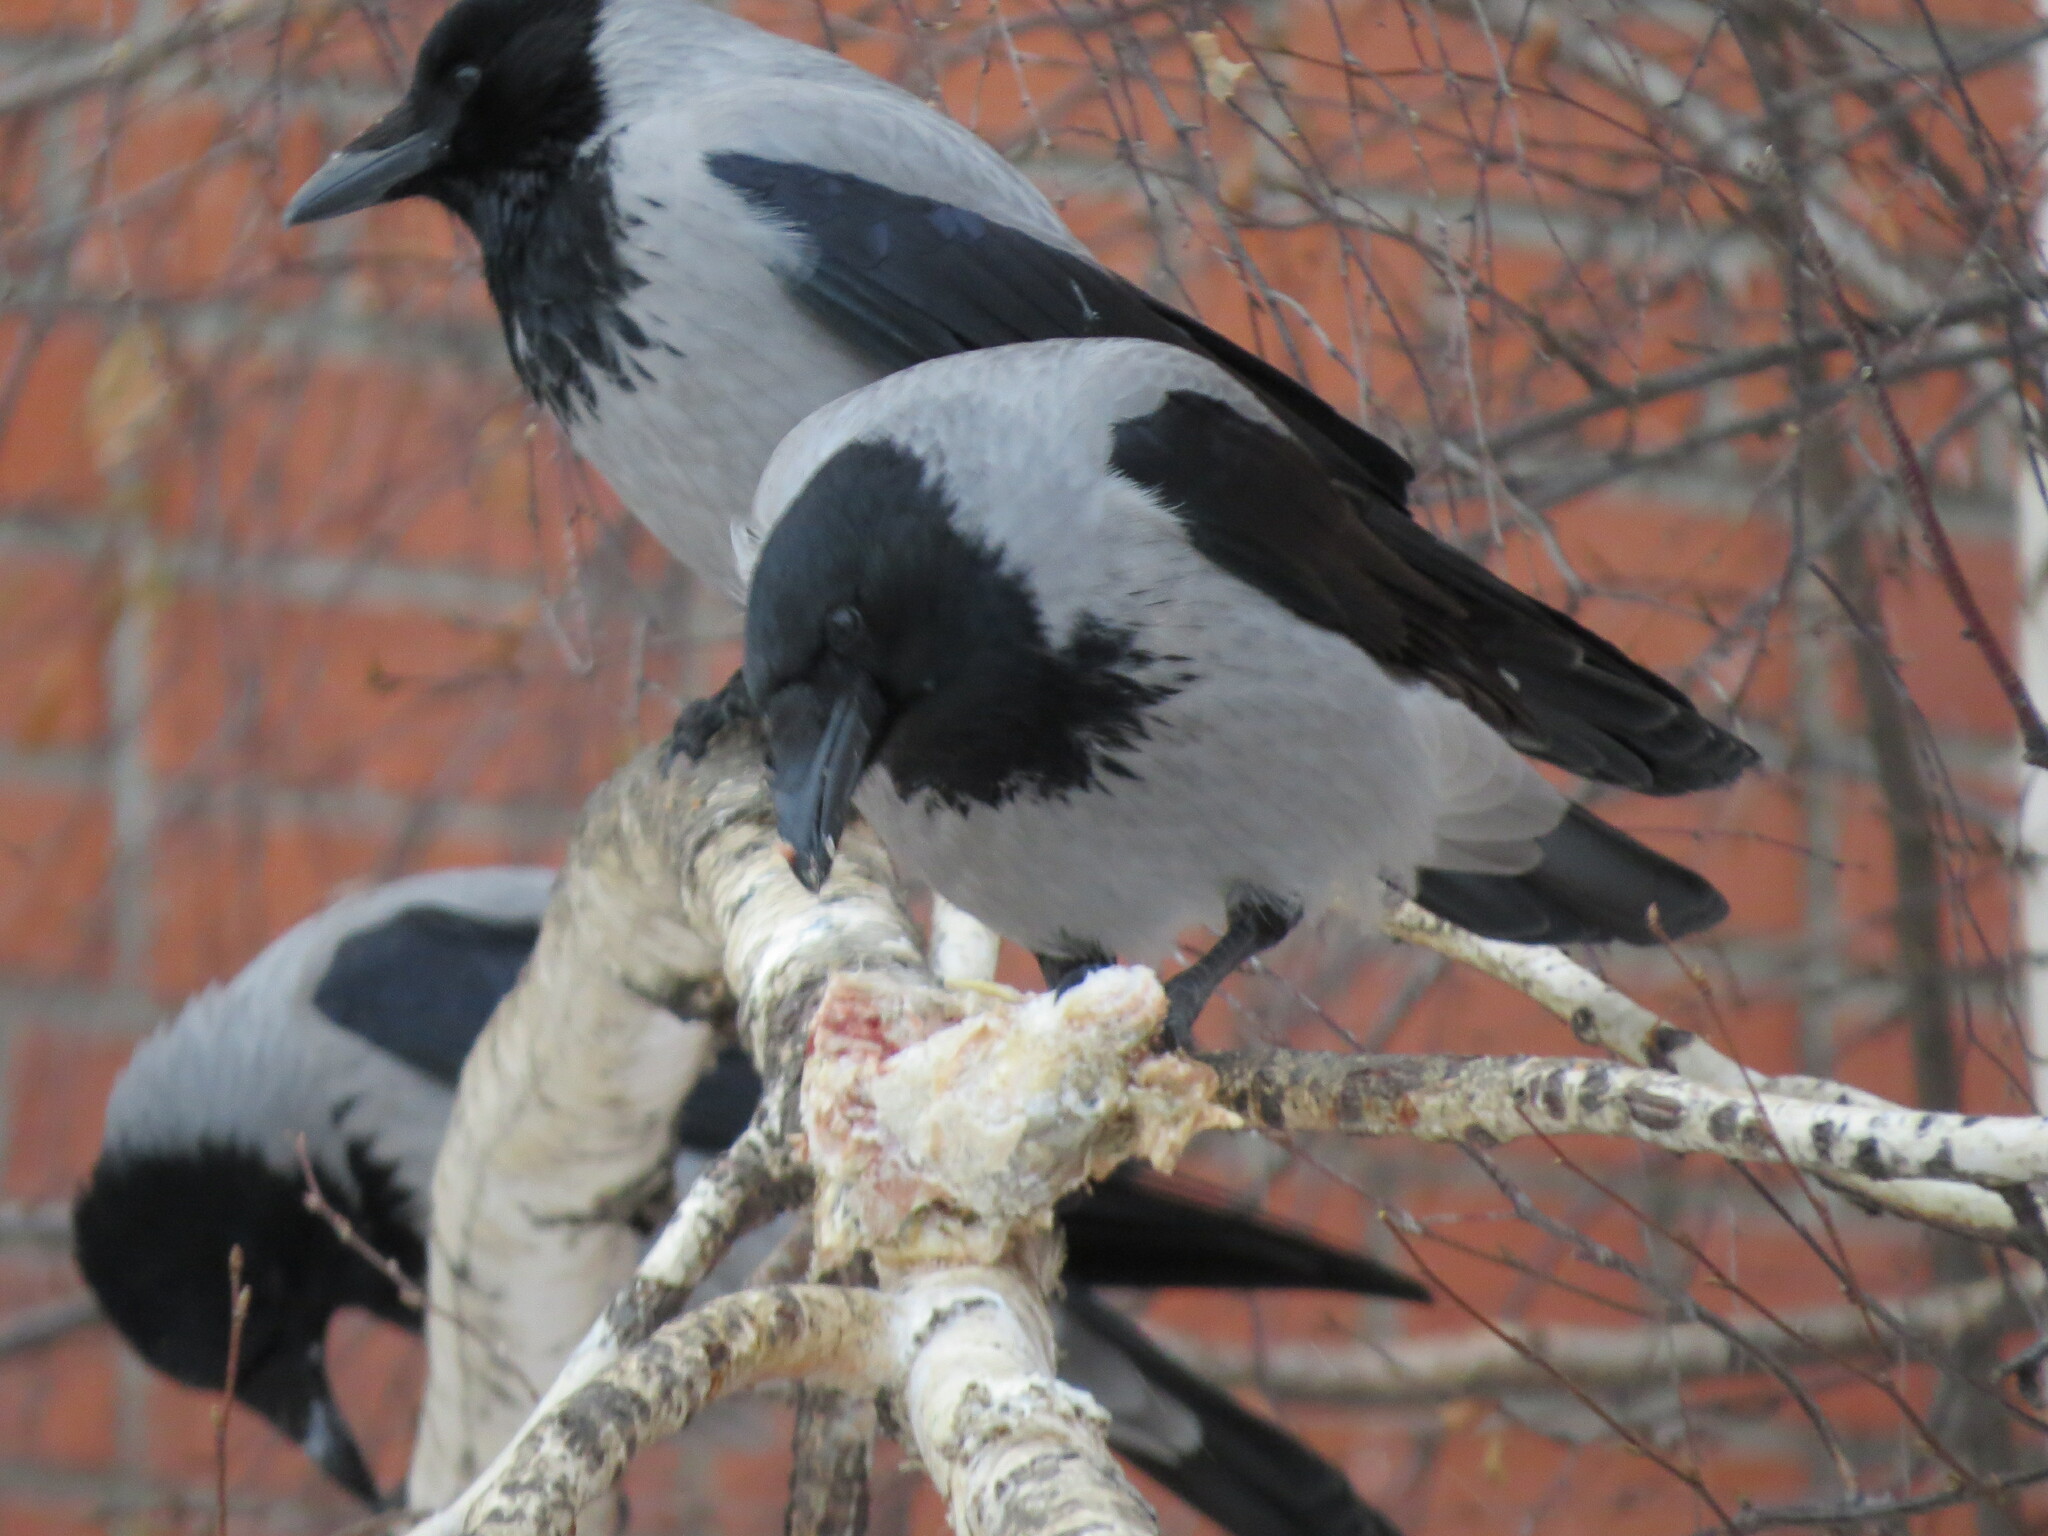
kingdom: Animalia
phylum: Chordata
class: Aves
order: Passeriformes
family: Corvidae
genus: Corvus
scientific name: Corvus cornix
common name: Hooded crow
